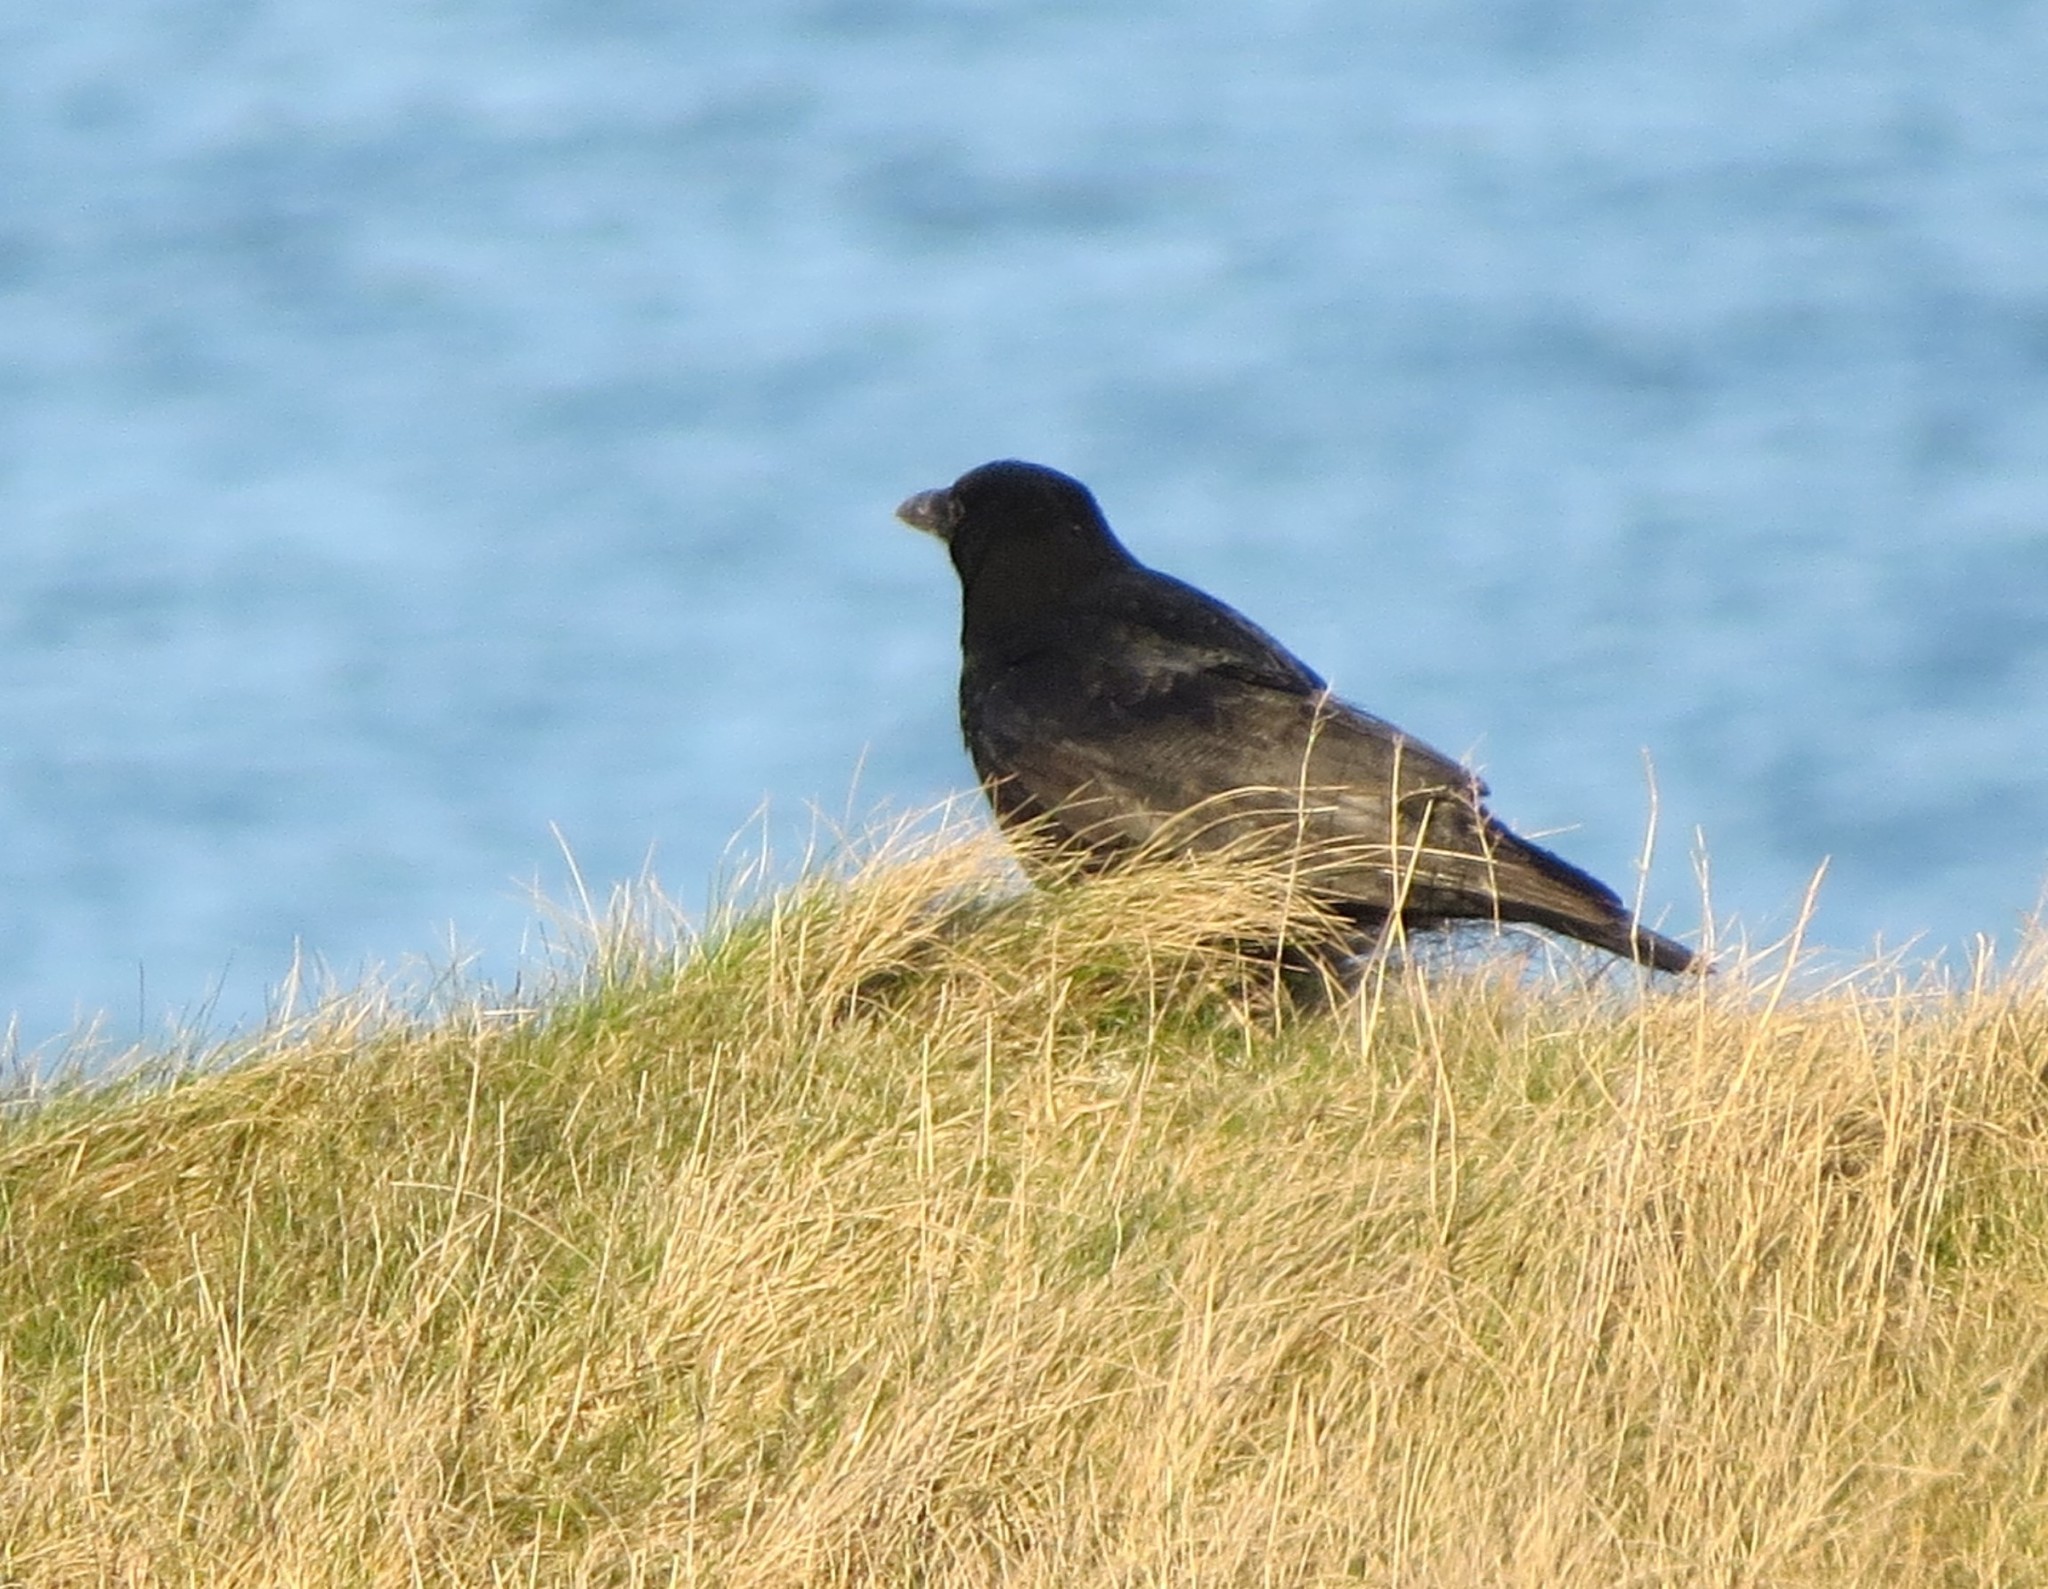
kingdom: Animalia
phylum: Chordata
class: Aves
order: Passeriformes
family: Corvidae
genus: Corvus
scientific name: Corvus corone
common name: Carrion crow
